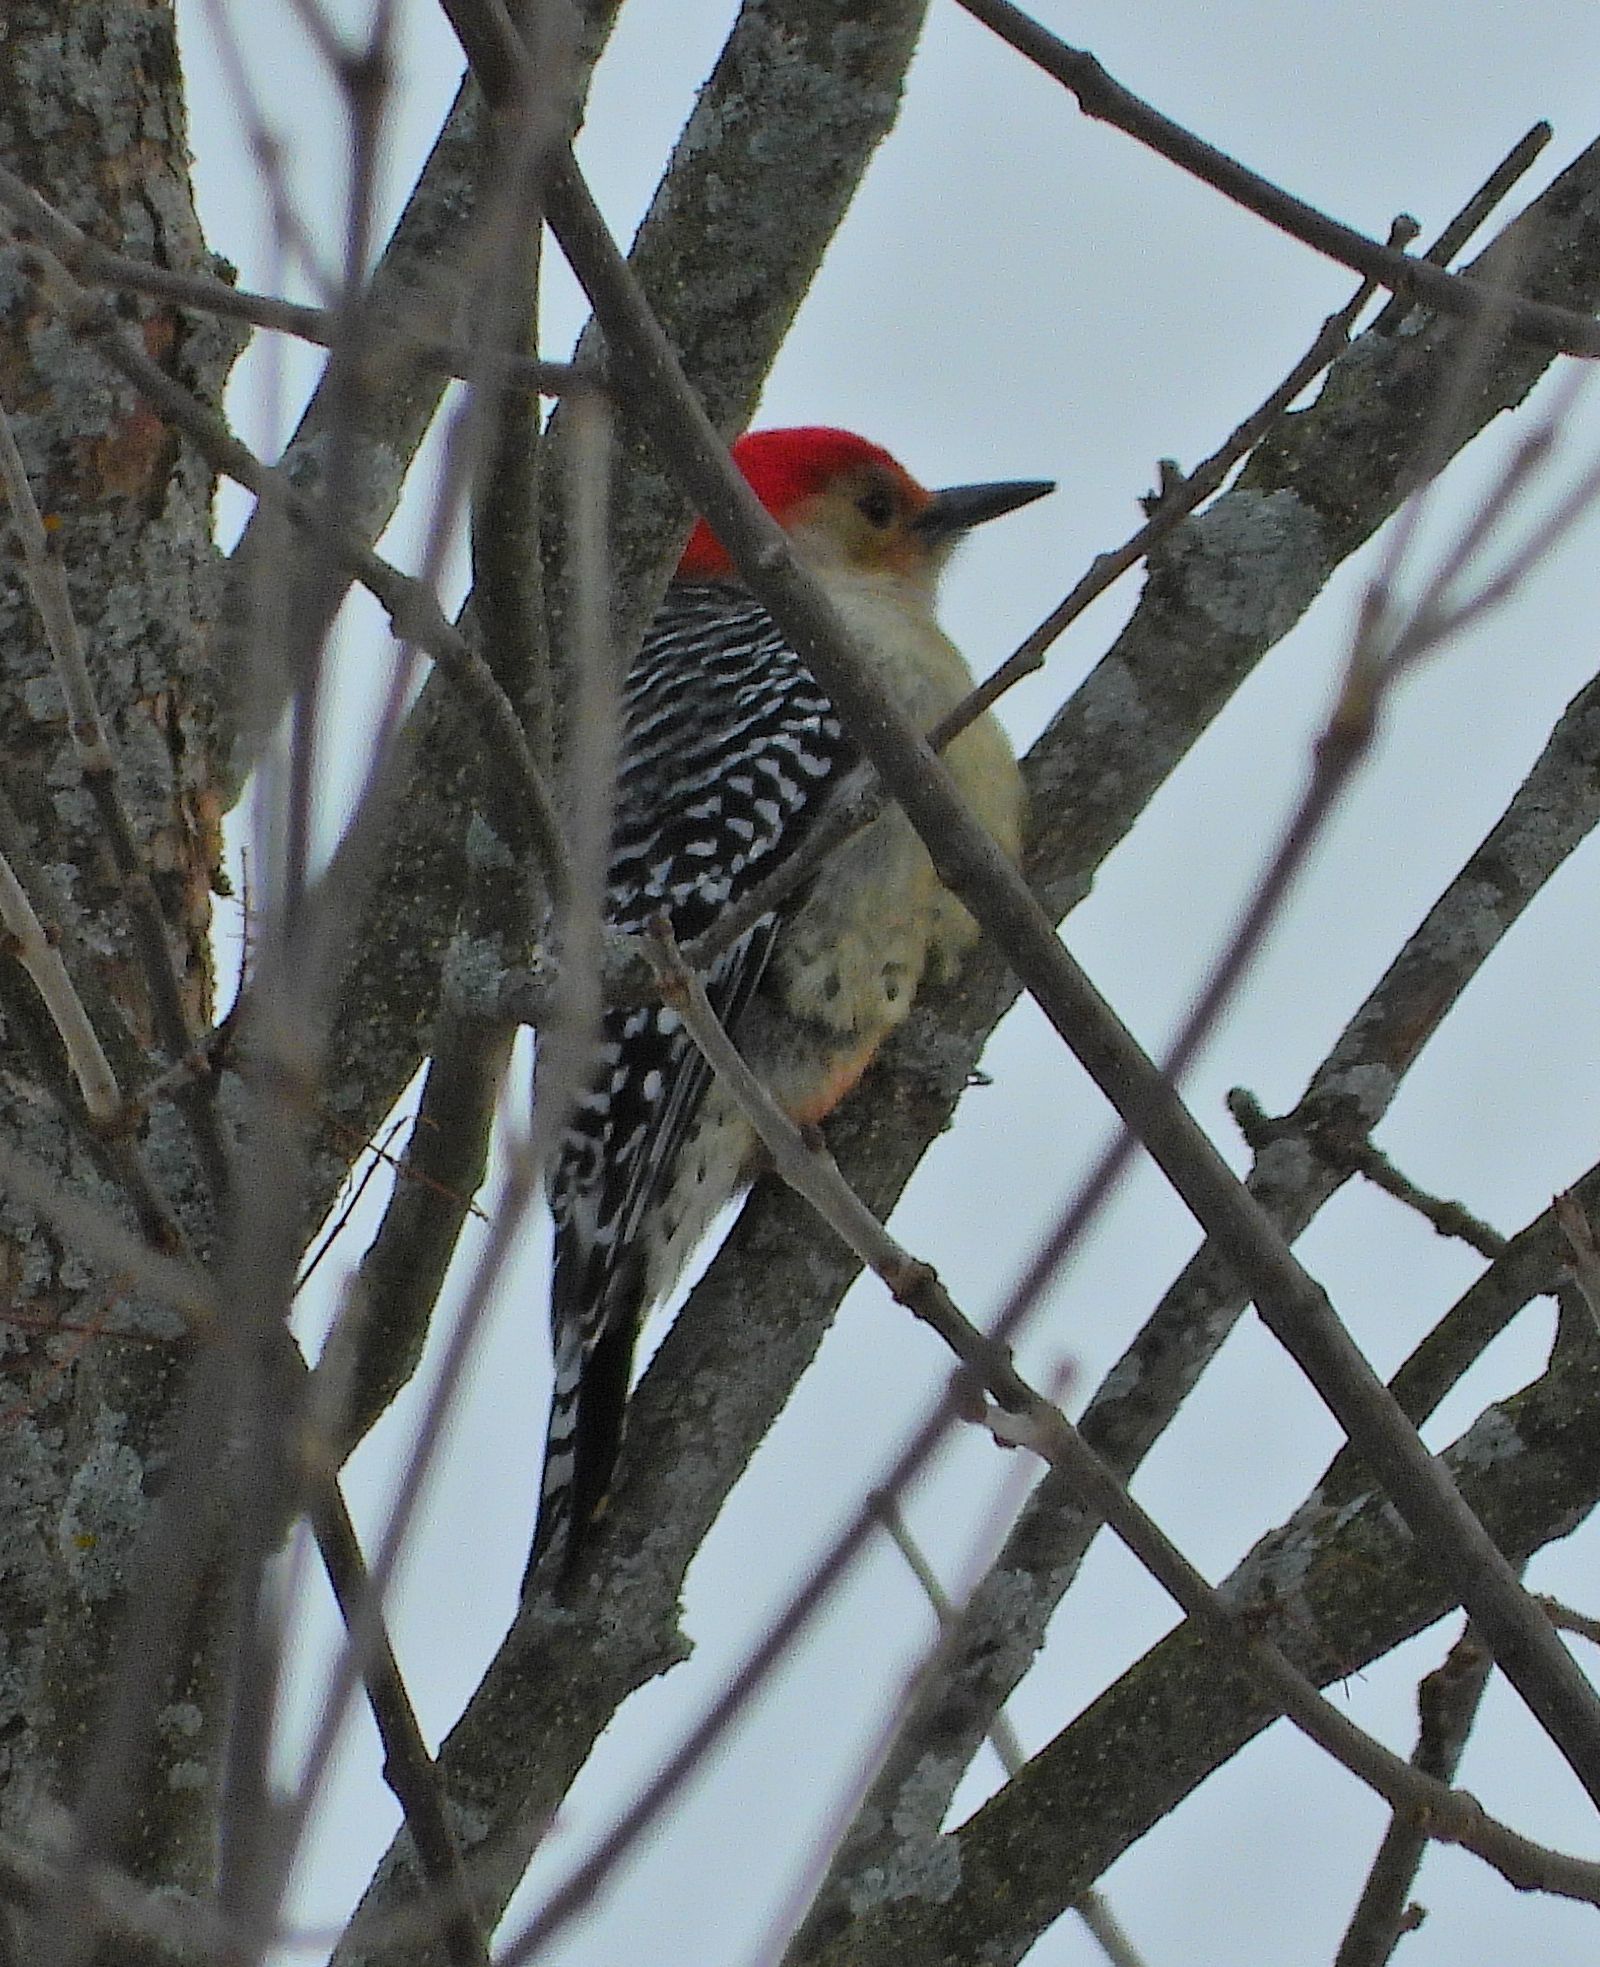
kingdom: Animalia
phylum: Chordata
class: Aves
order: Piciformes
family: Picidae
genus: Melanerpes
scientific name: Melanerpes carolinus
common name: Red-bellied woodpecker
